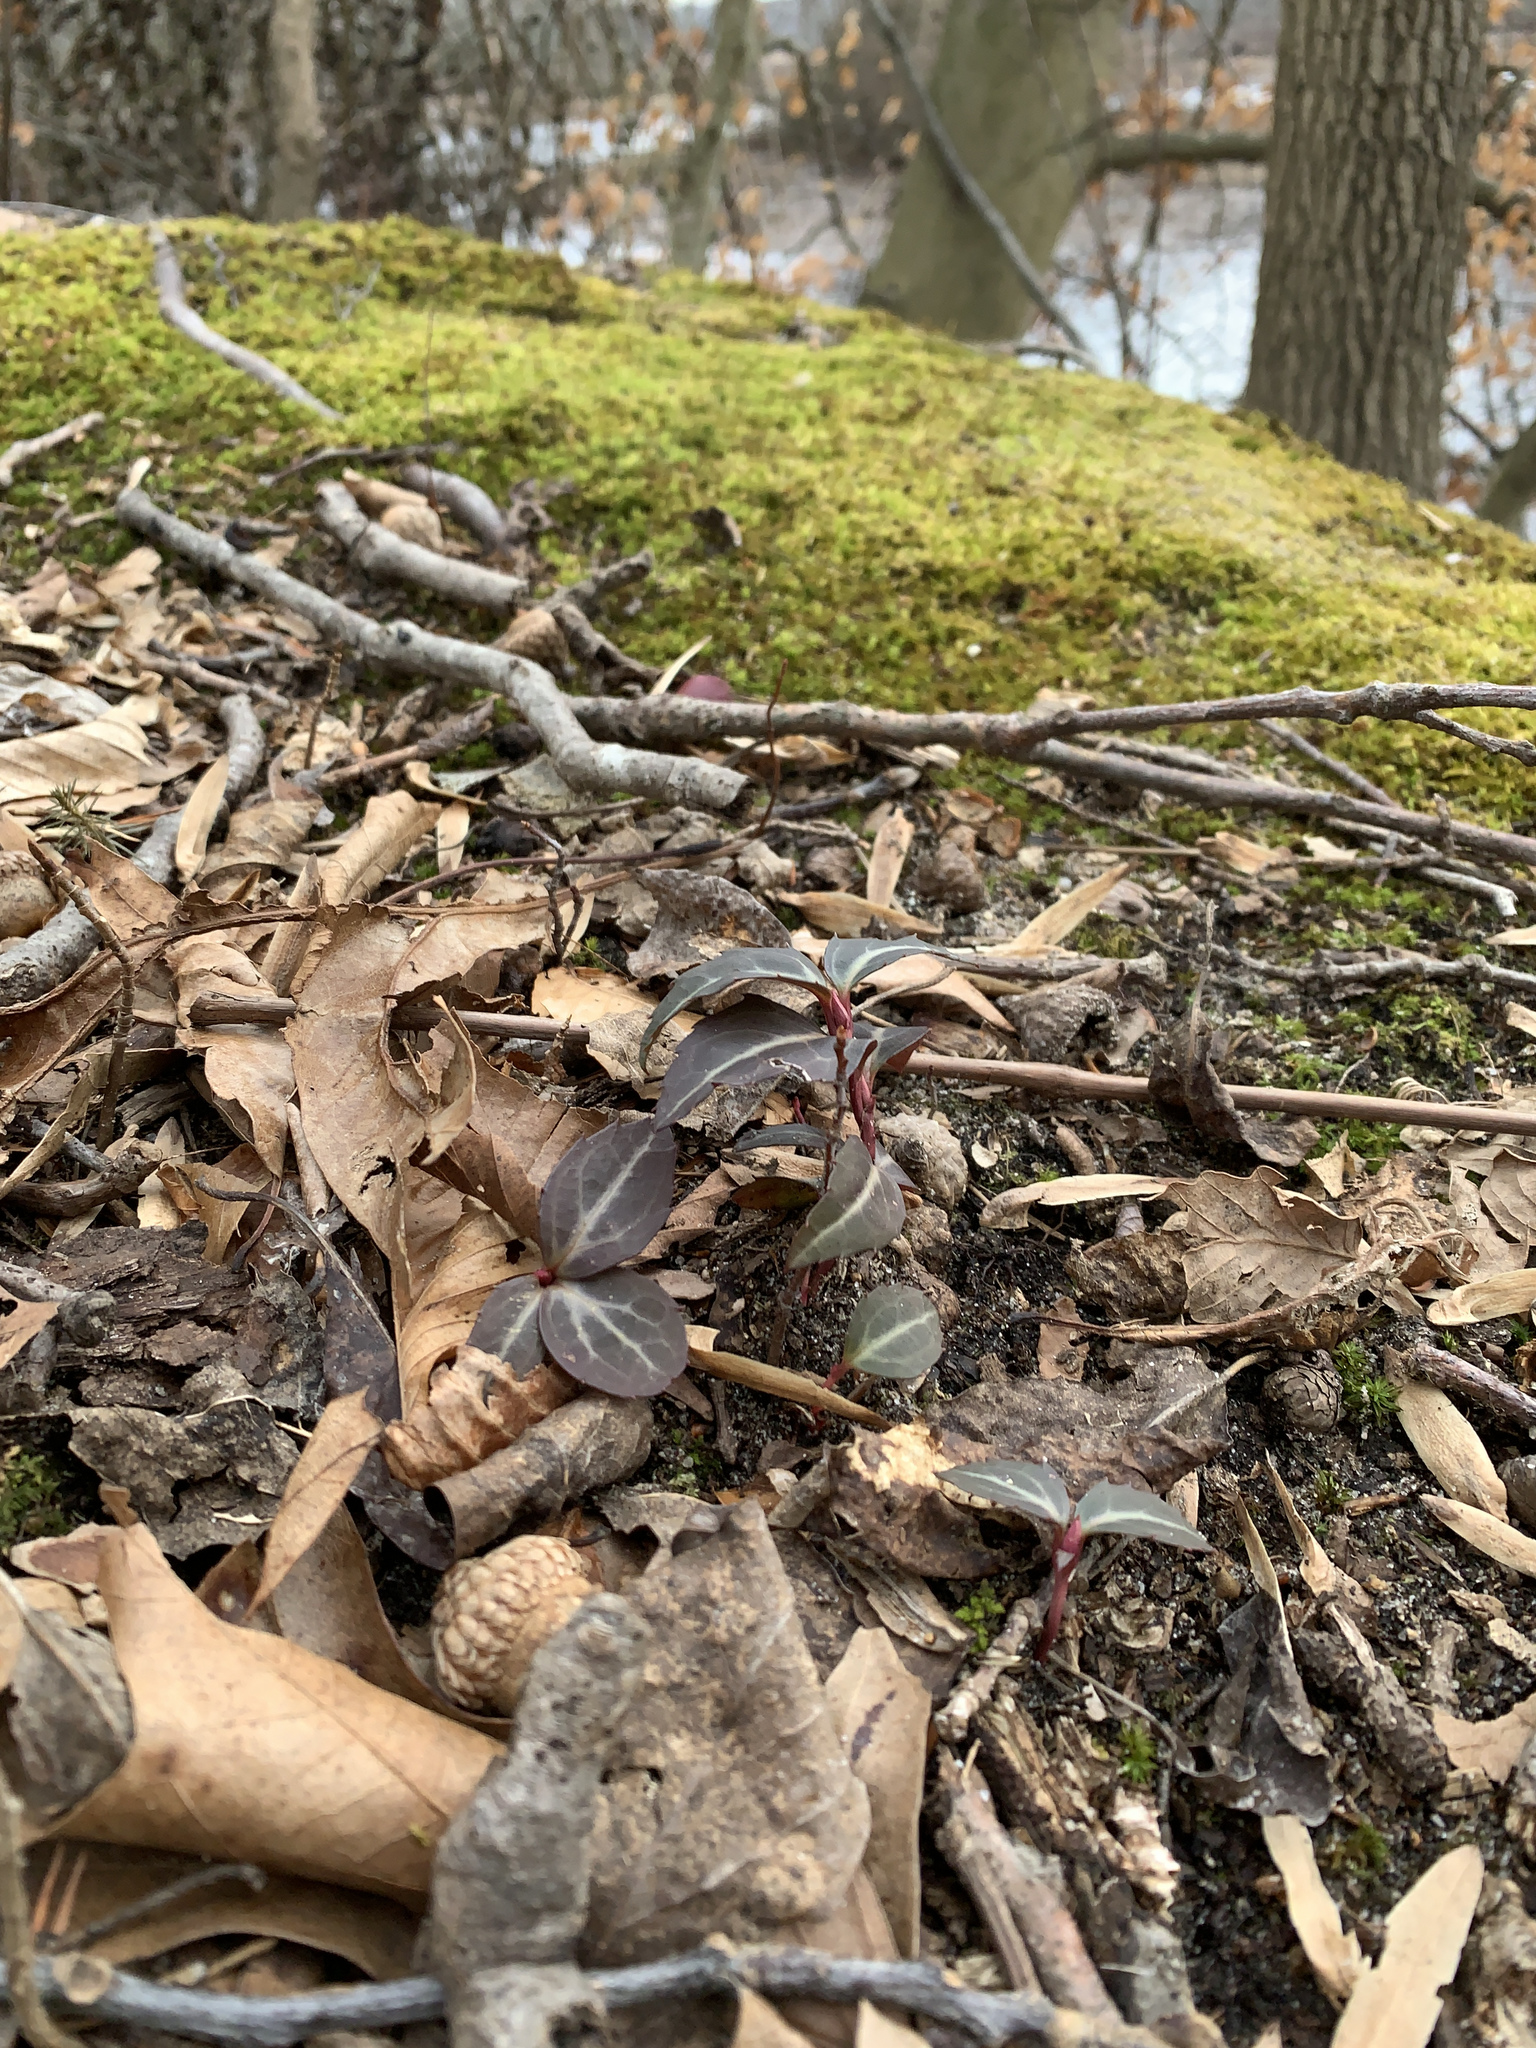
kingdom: Plantae
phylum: Tracheophyta
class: Magnoliopsida
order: Ericales
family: Ericaceae
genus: Chimaphila
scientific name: Chimaphila maculata
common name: Spotted pipsissewa
